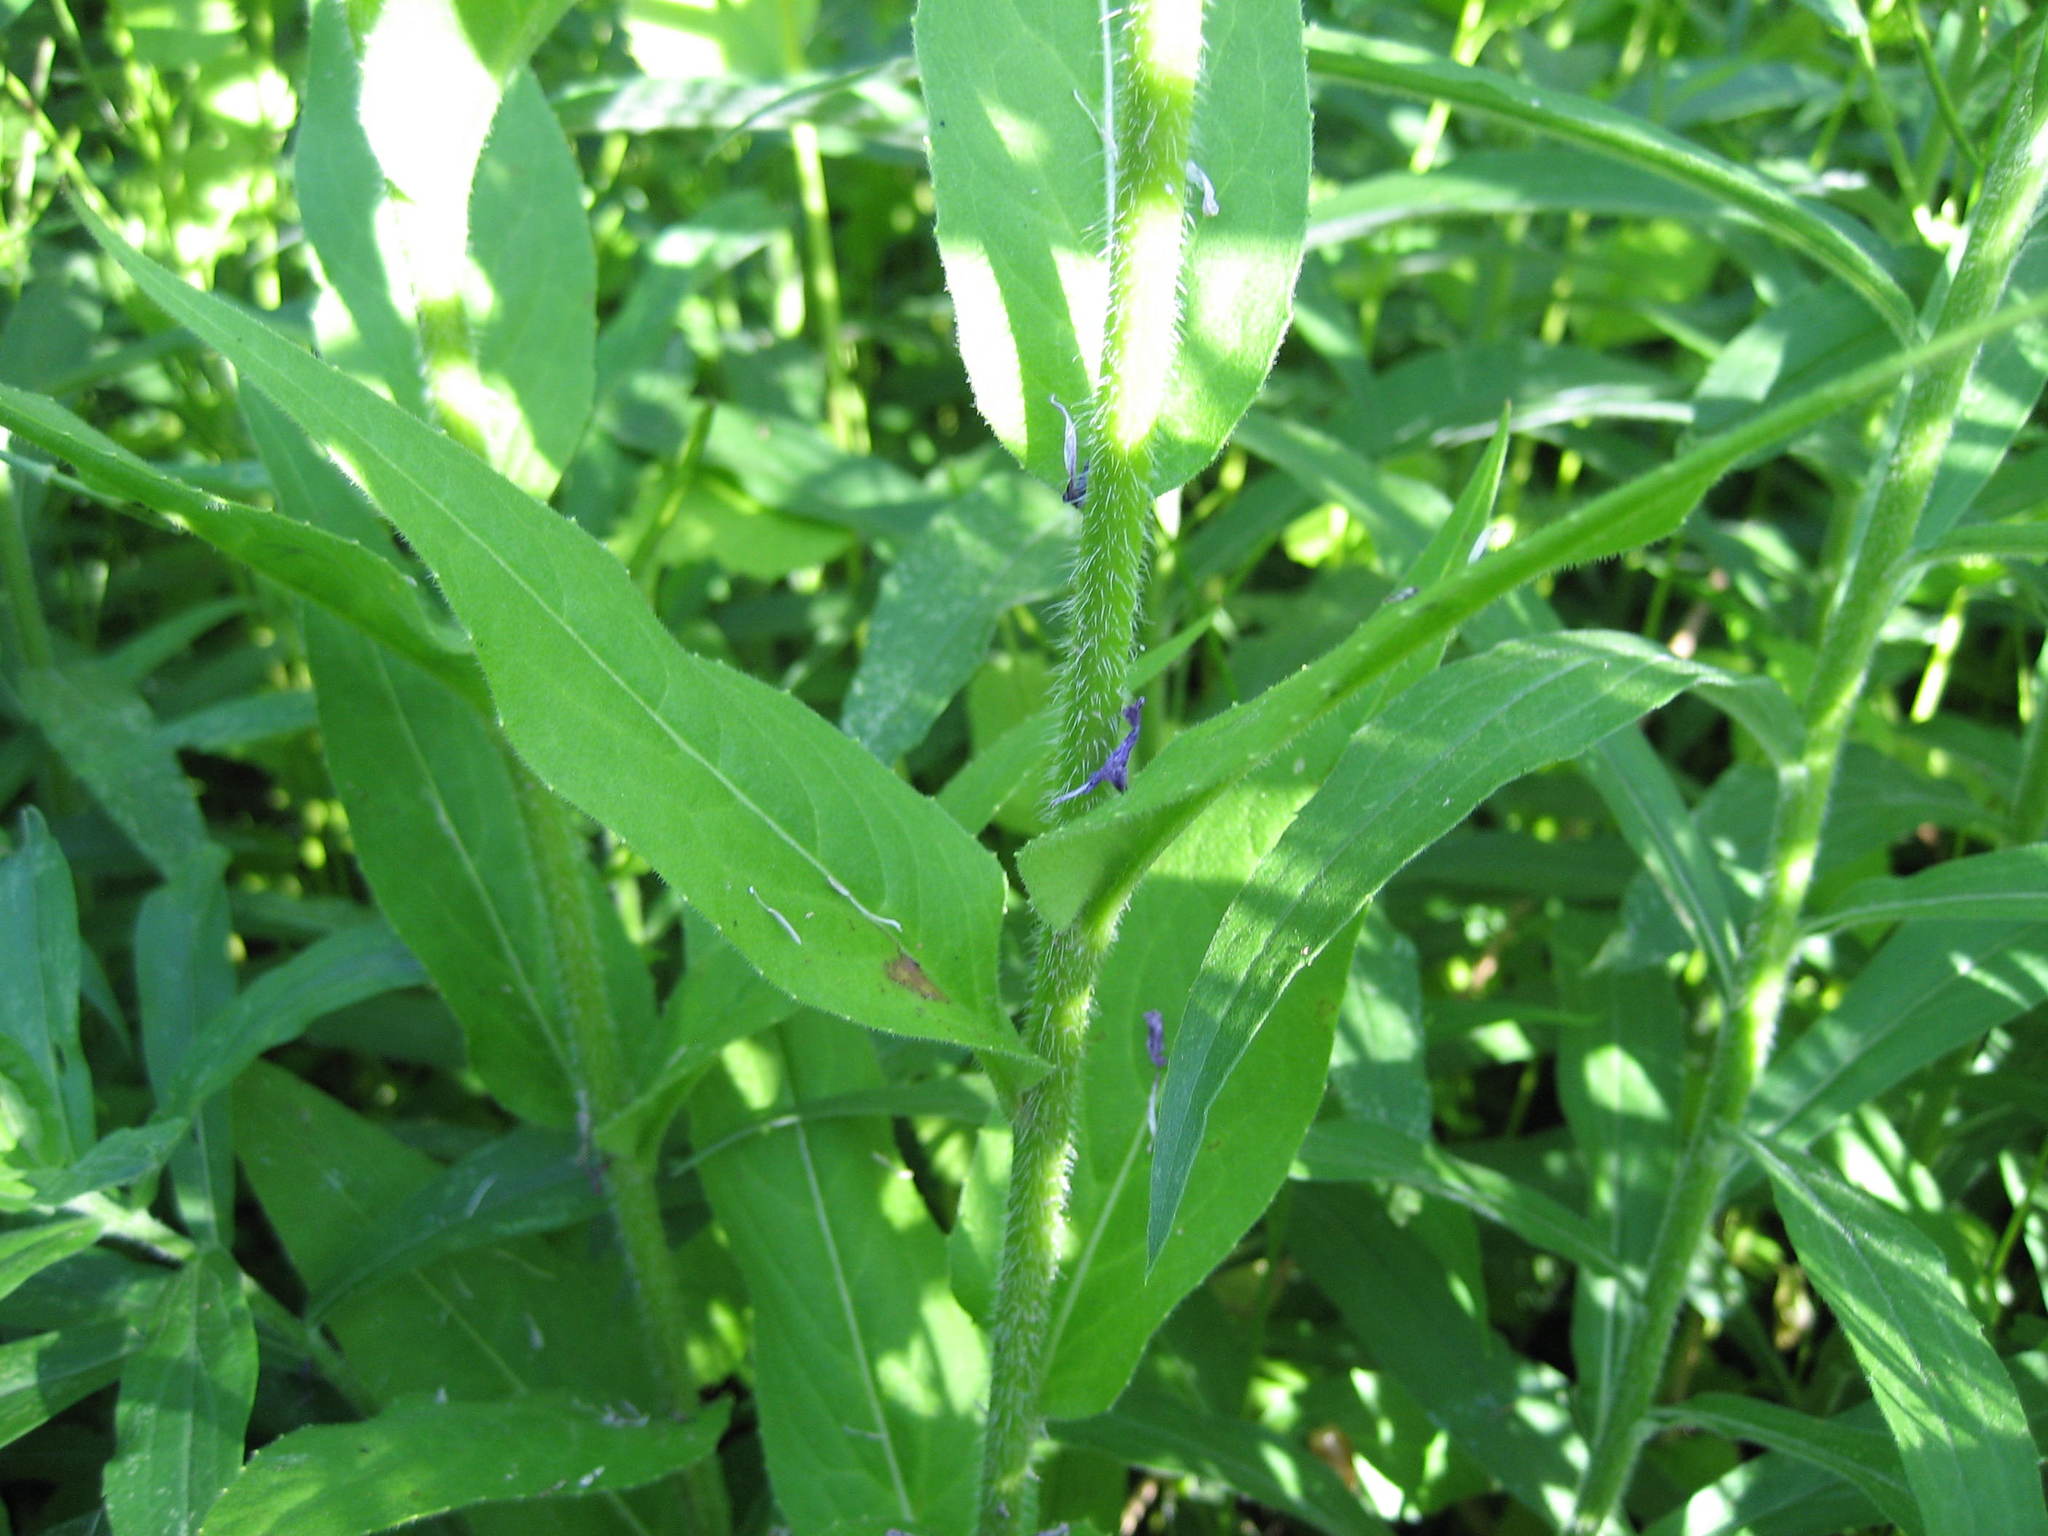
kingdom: Plantae
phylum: Tracheophyta
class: Magnoliopsida
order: Brassicales
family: Brassicaceae
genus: Hesperis
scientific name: Hesperis matronalis
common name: Dame's-violet
